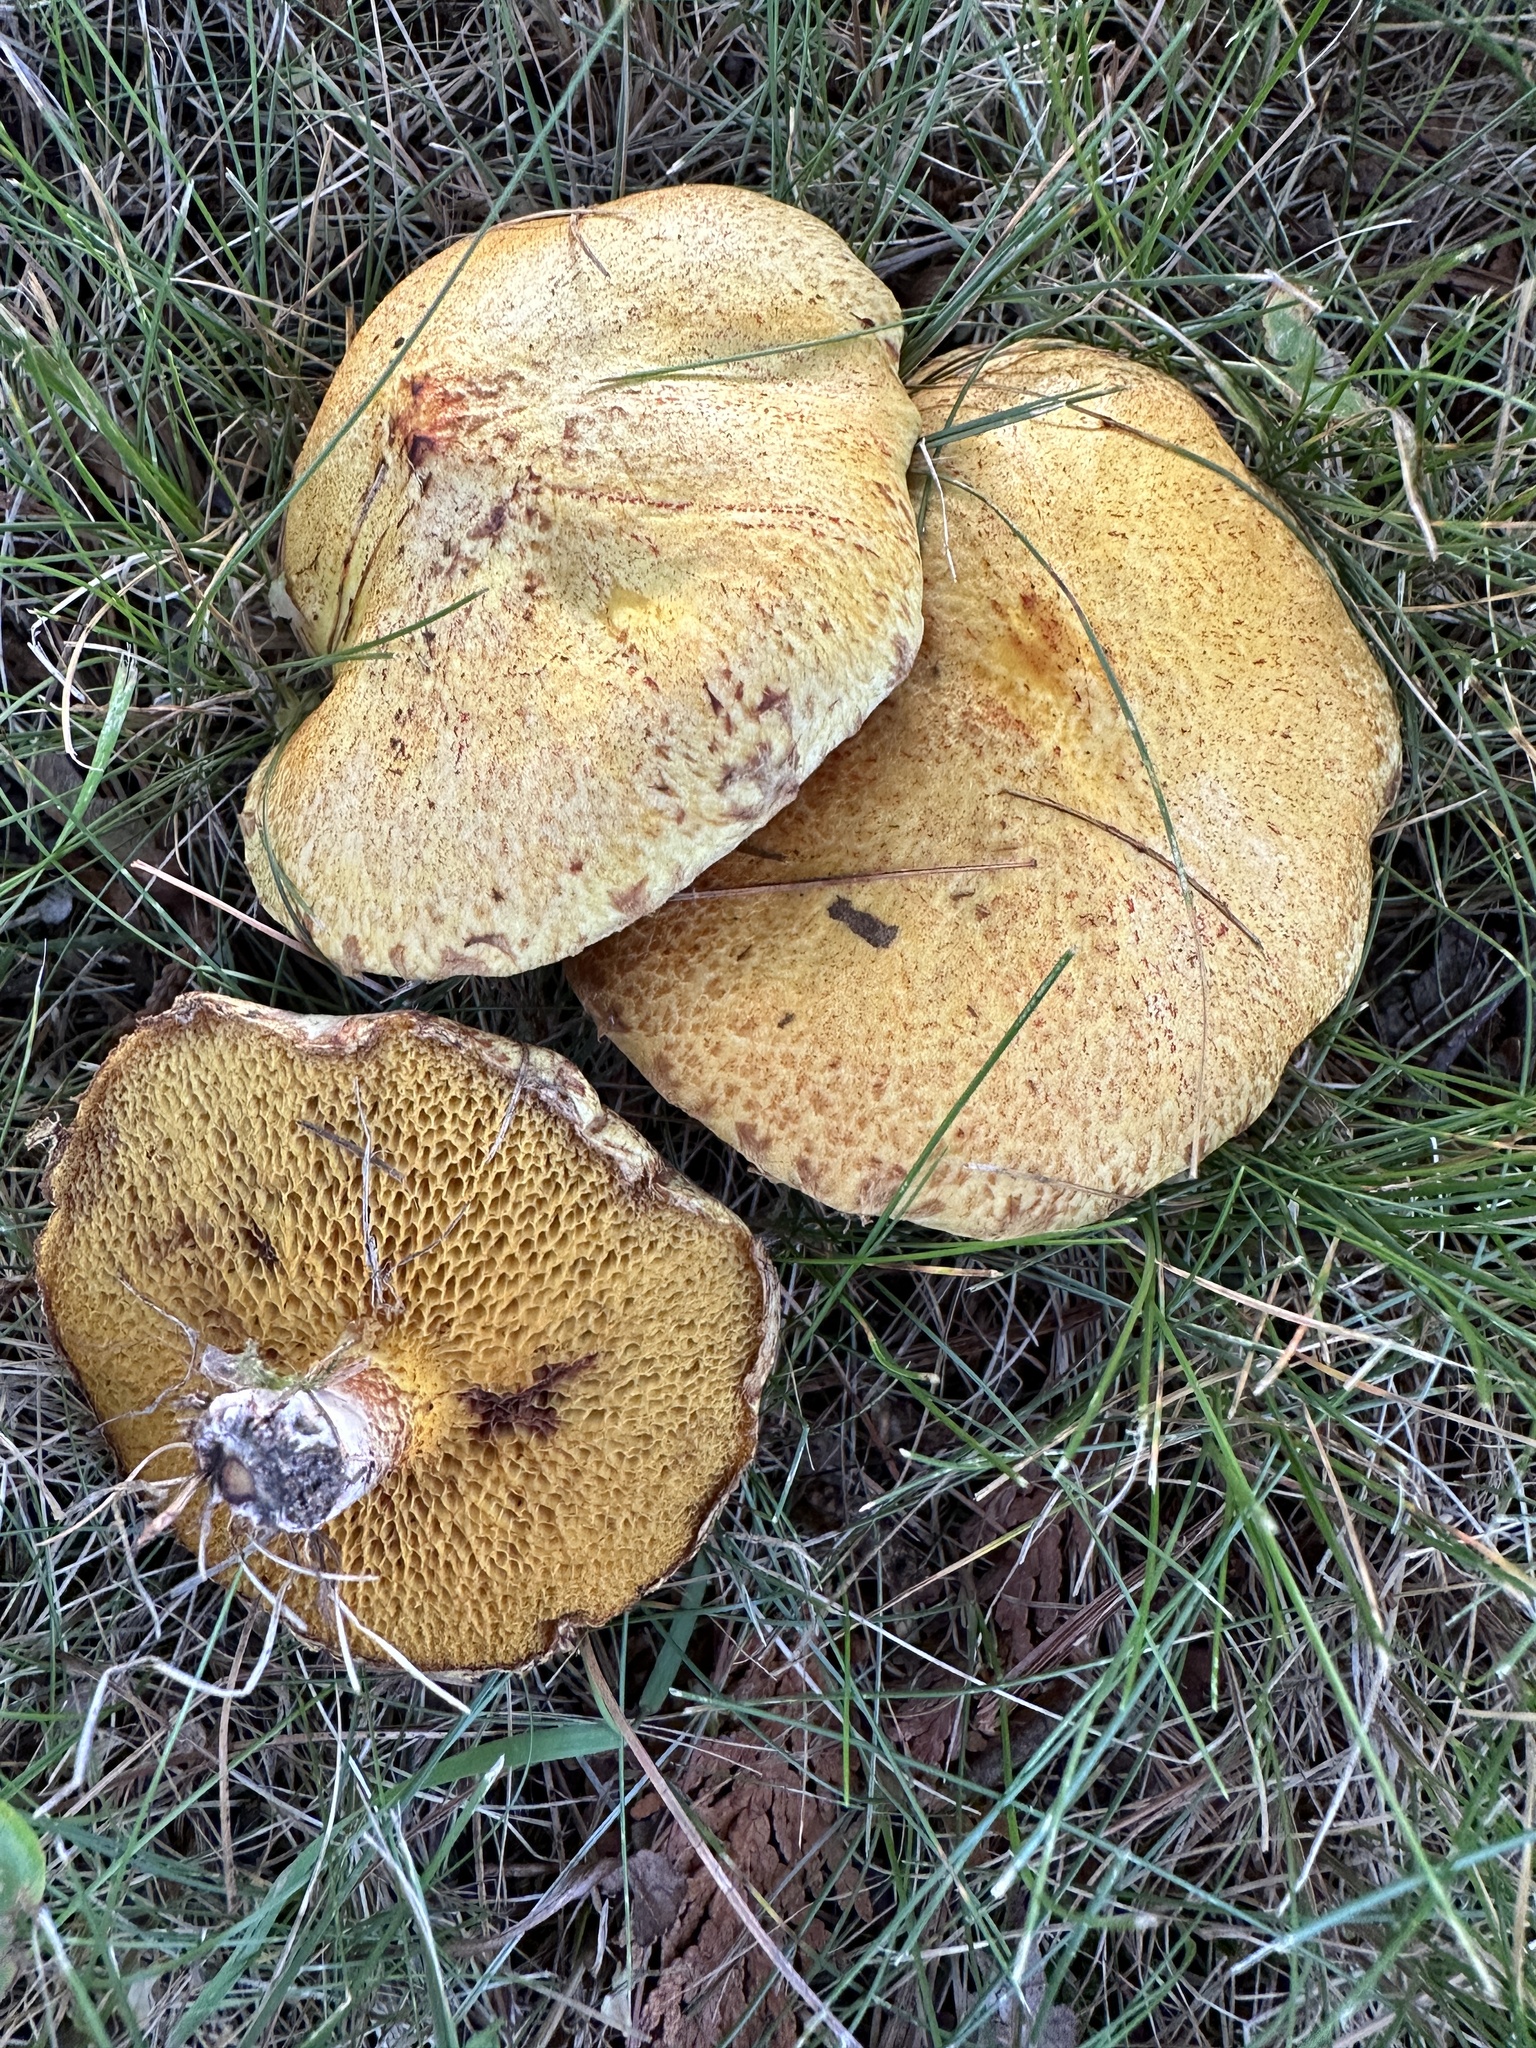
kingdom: Fungi
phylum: Basidiomycota
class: Agaricomycetes
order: Boletales
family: Suillaceae
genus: Suillus
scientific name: Suillus americanus
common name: Chicken fat mushroom
